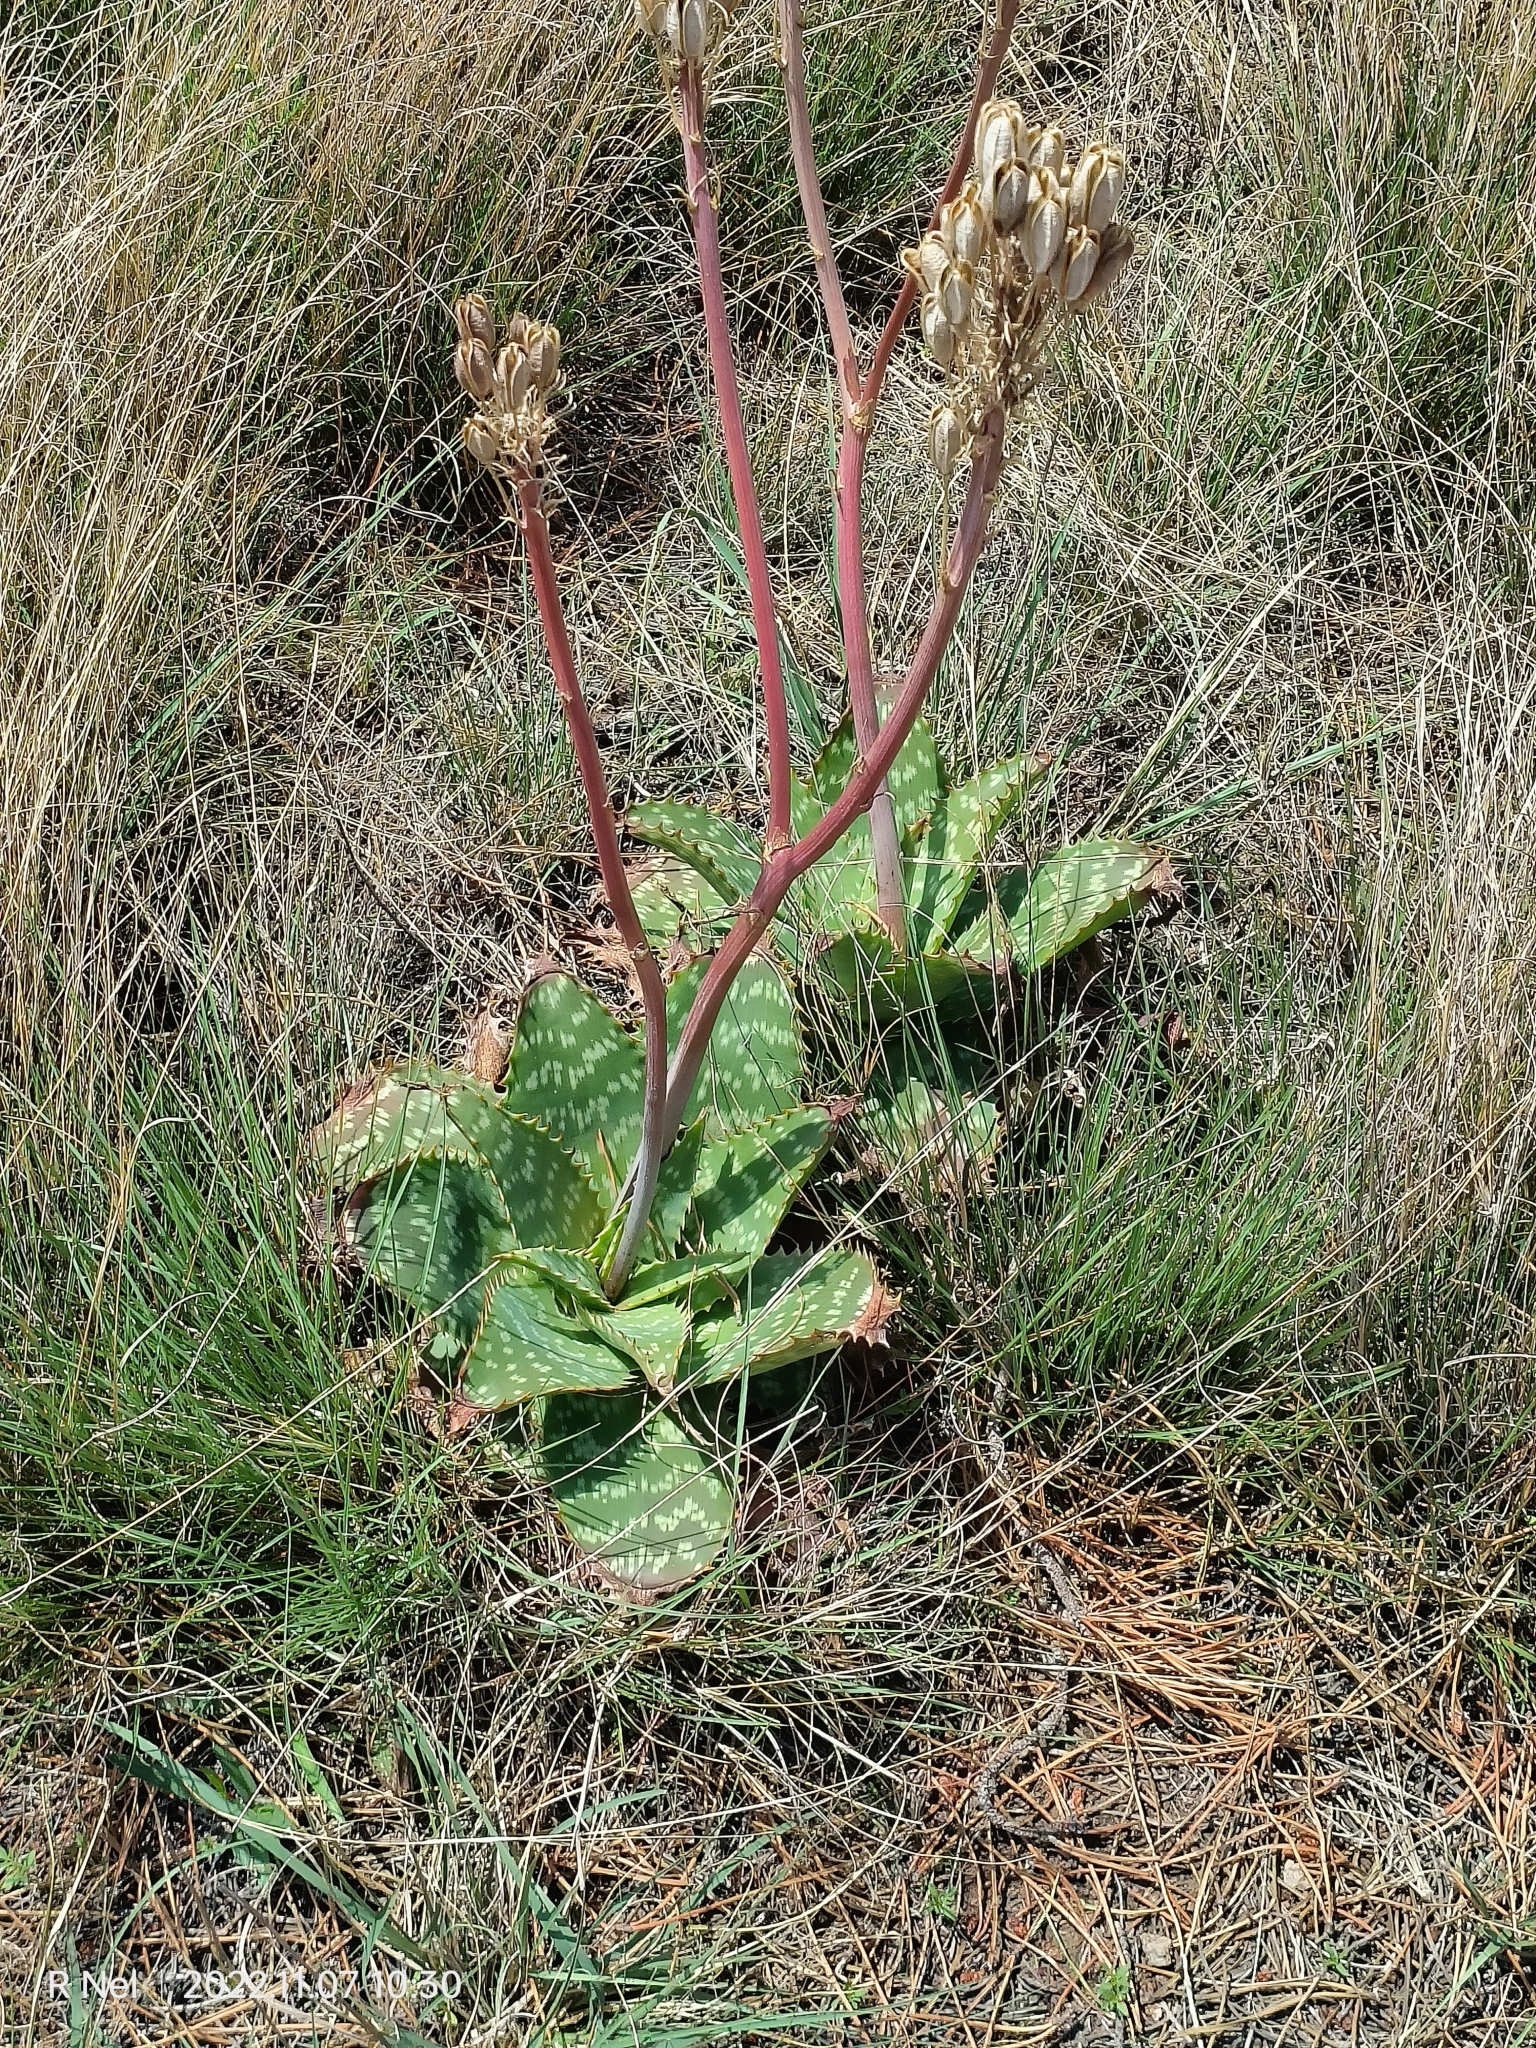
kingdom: Plantae
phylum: Tracheophyta
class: Liliopsida
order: Asparagales
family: Asphodelaceae
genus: Aloe
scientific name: Aloe maculata
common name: Broadleaf aloe
